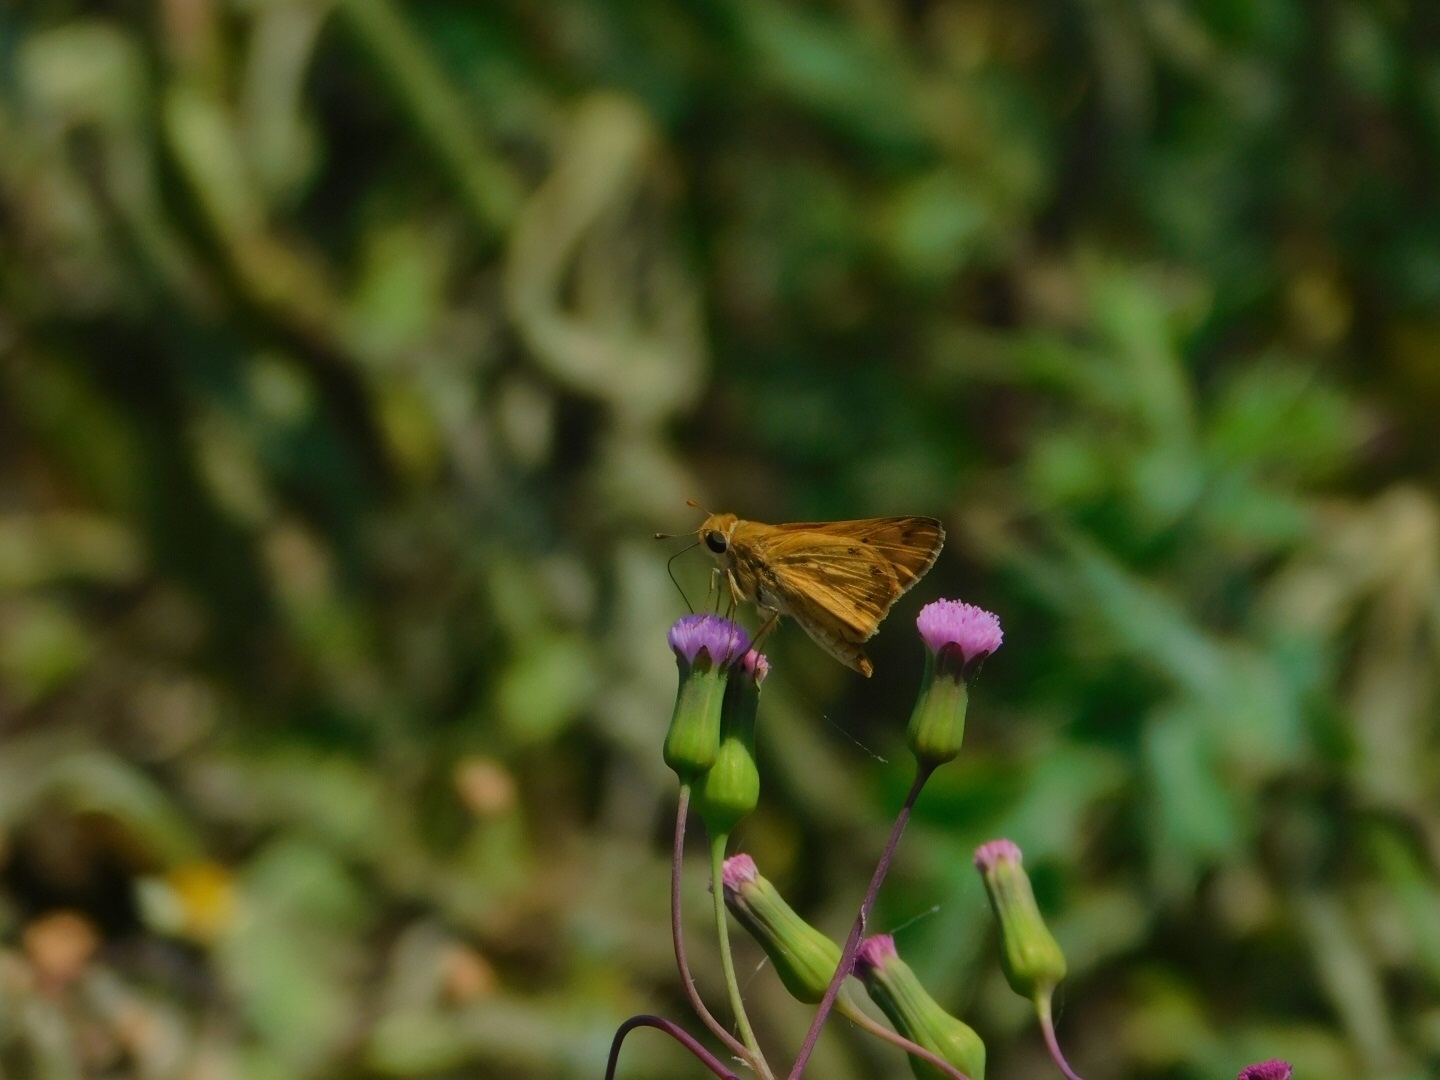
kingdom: Animalia
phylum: Arthropoda
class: Insecta
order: Lepidoptera
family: Hesperiidae
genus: Hylephila
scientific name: Hylephila phyleus
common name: Fiery skipper
